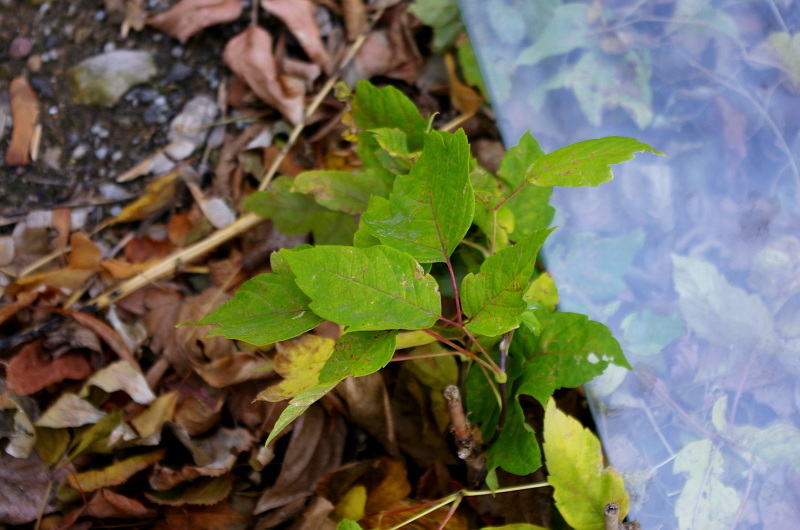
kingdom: Plantae
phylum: Tracheophyta
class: Magnoliopsida
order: Sapindales
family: Sapindaceae
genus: Acer
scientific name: Acer negundo
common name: Ashleaf maple
